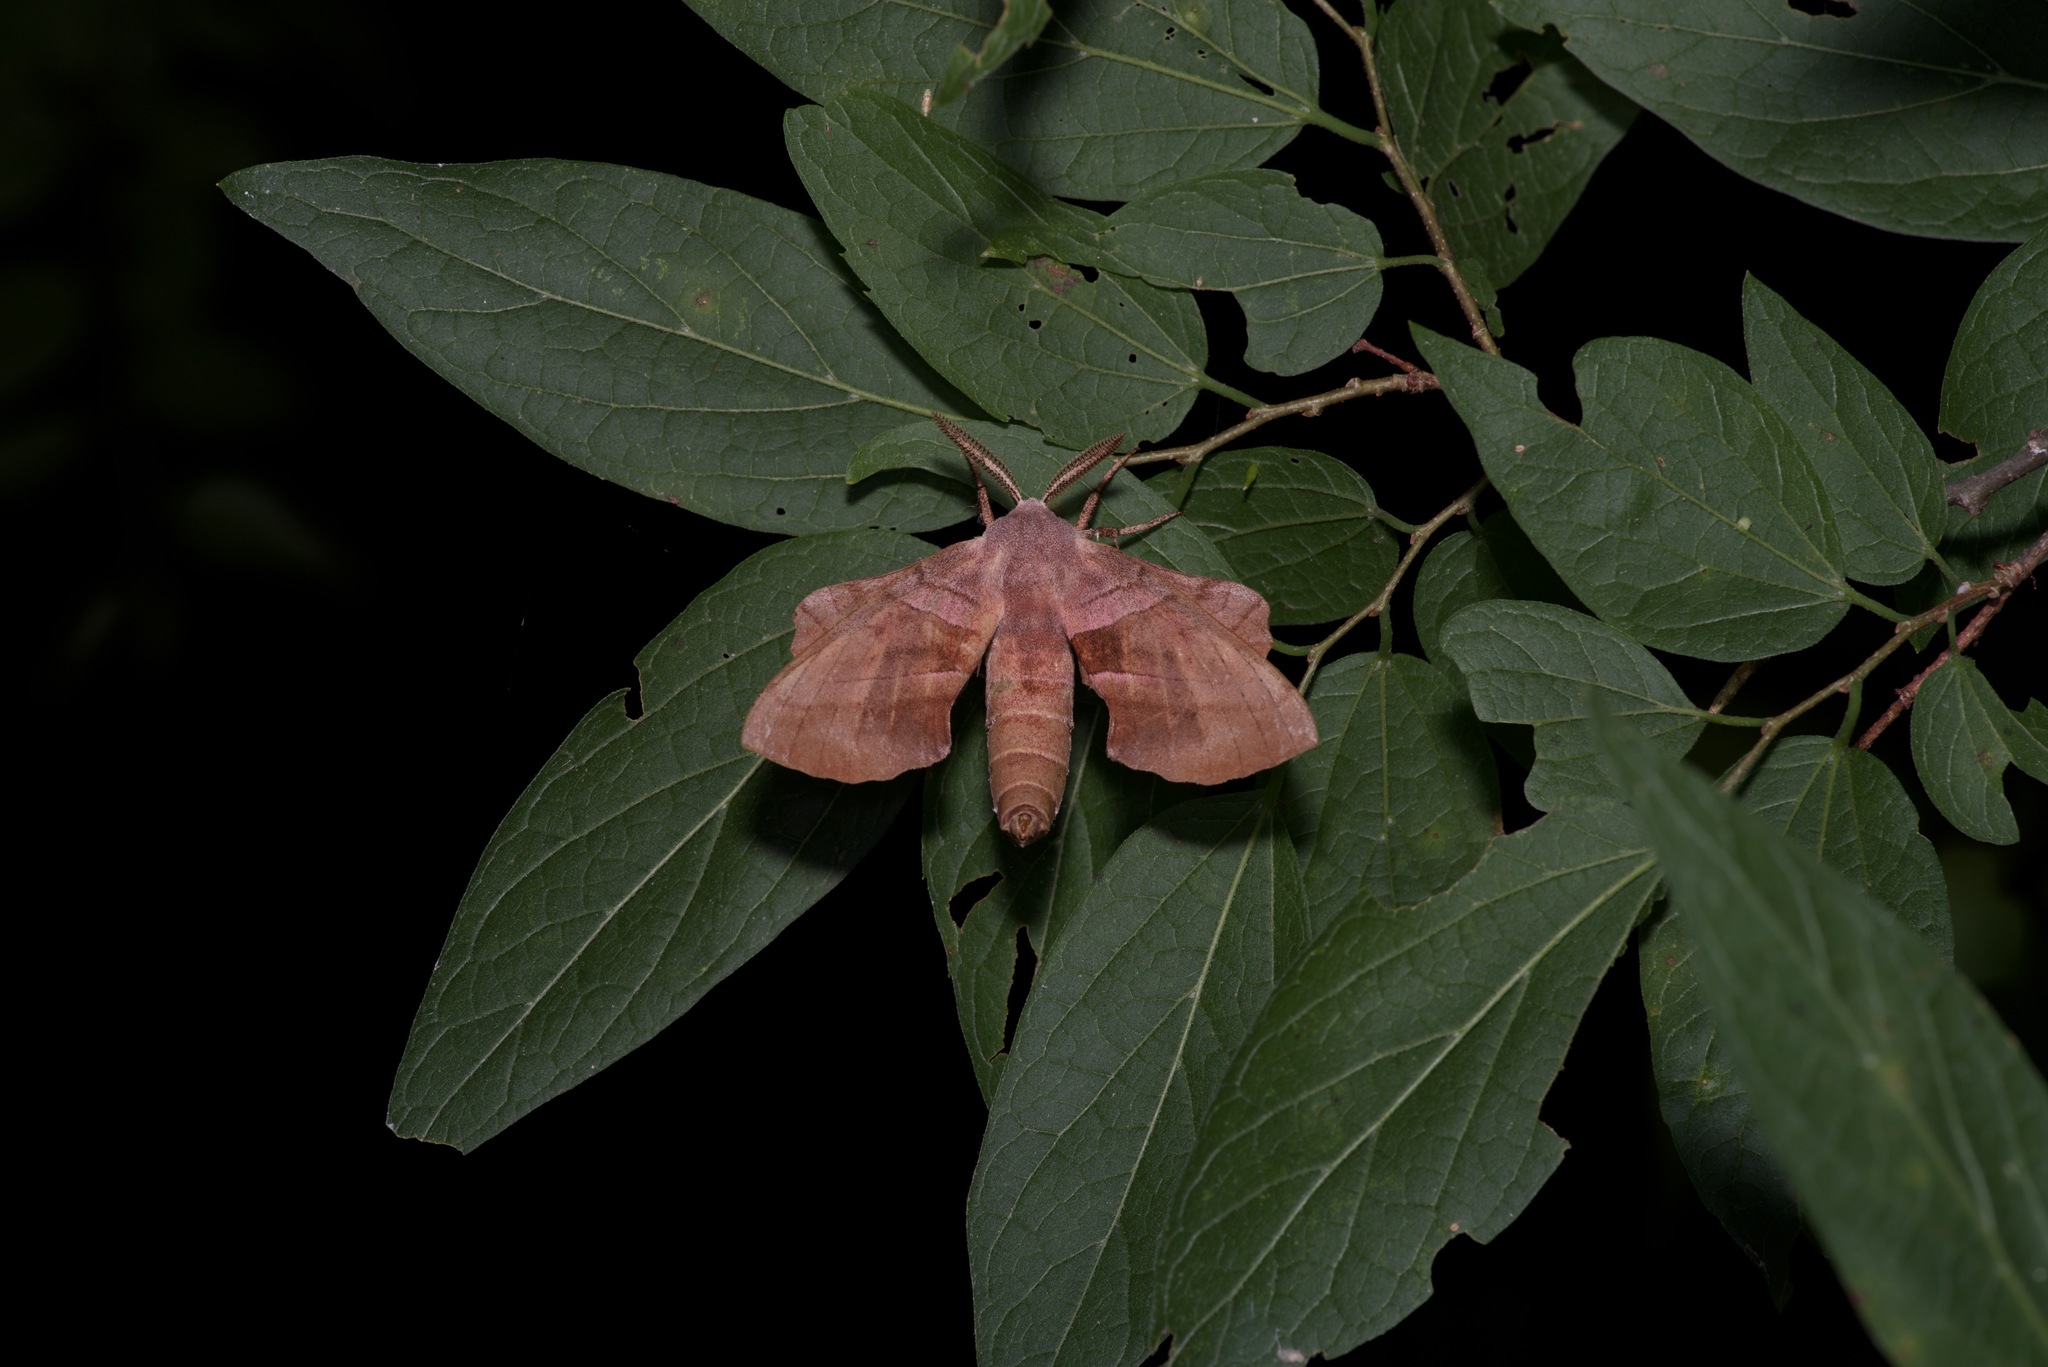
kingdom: Animalia
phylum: Arthropoda
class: Insecta
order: Lepidoptera
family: Sphingidae
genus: Amorpha
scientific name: Amorpha juglandis
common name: Walnut sphinx
